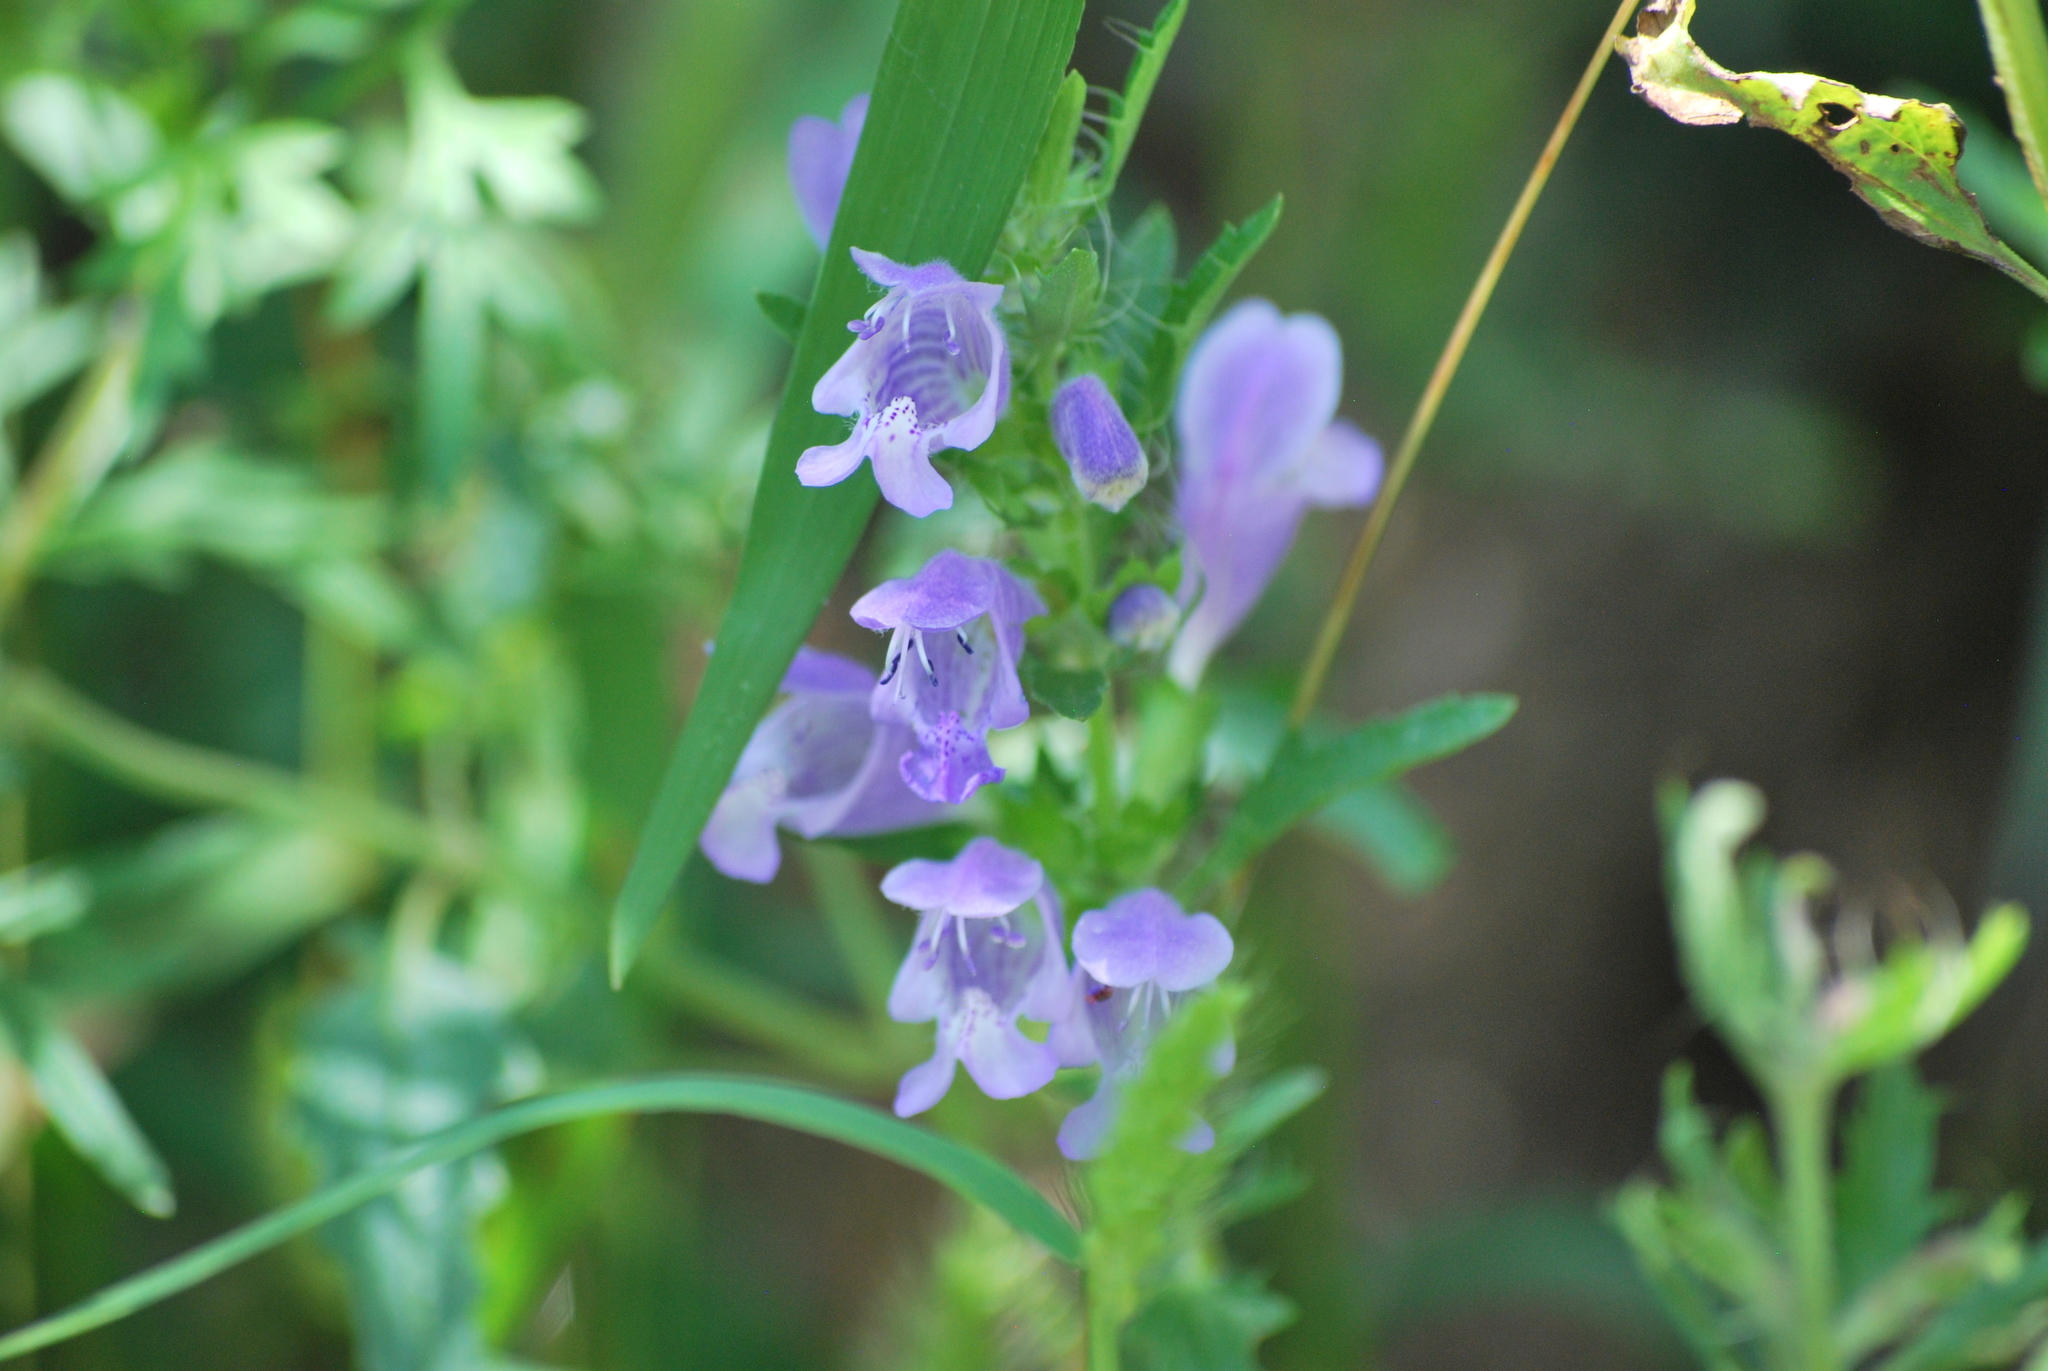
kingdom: Plantae
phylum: Tracheophyta
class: Magnoliopsida
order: Lamiales
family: Lamiaceae
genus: Dracocephalum
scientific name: Dracocephalum moldavica
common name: Moldavian dragonhead
